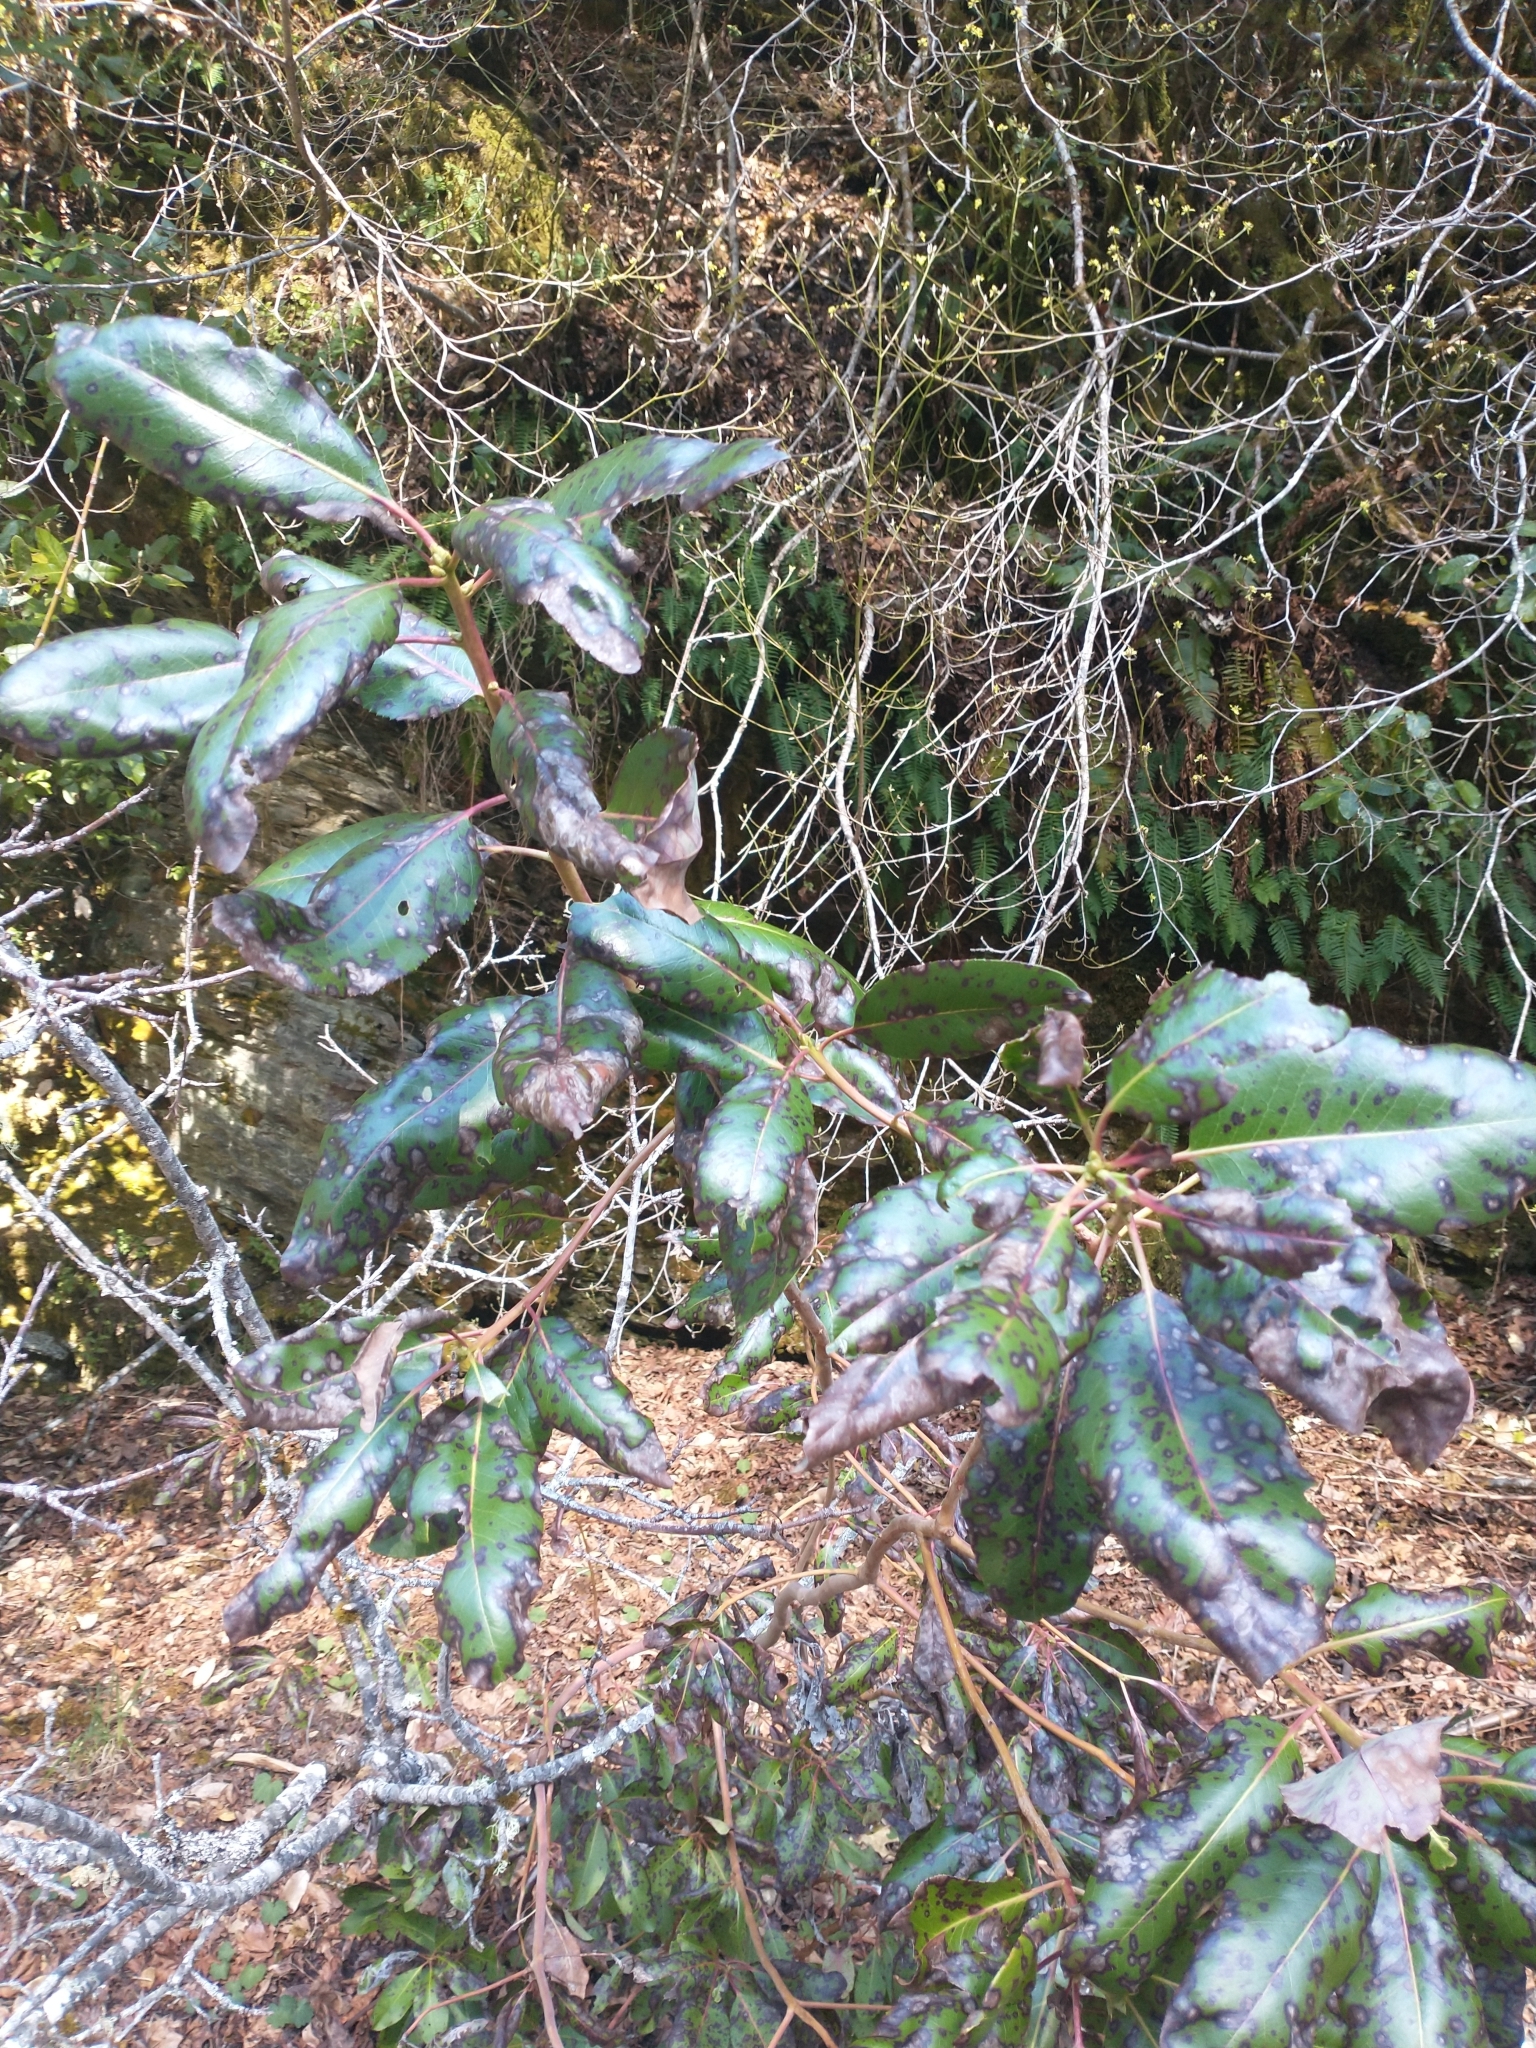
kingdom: Plantae
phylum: Tracheophyta
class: Magnoliopsida
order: Ericales
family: Ericaceae
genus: Arbutus
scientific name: Arbutus menziesii
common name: Pacific madrone
